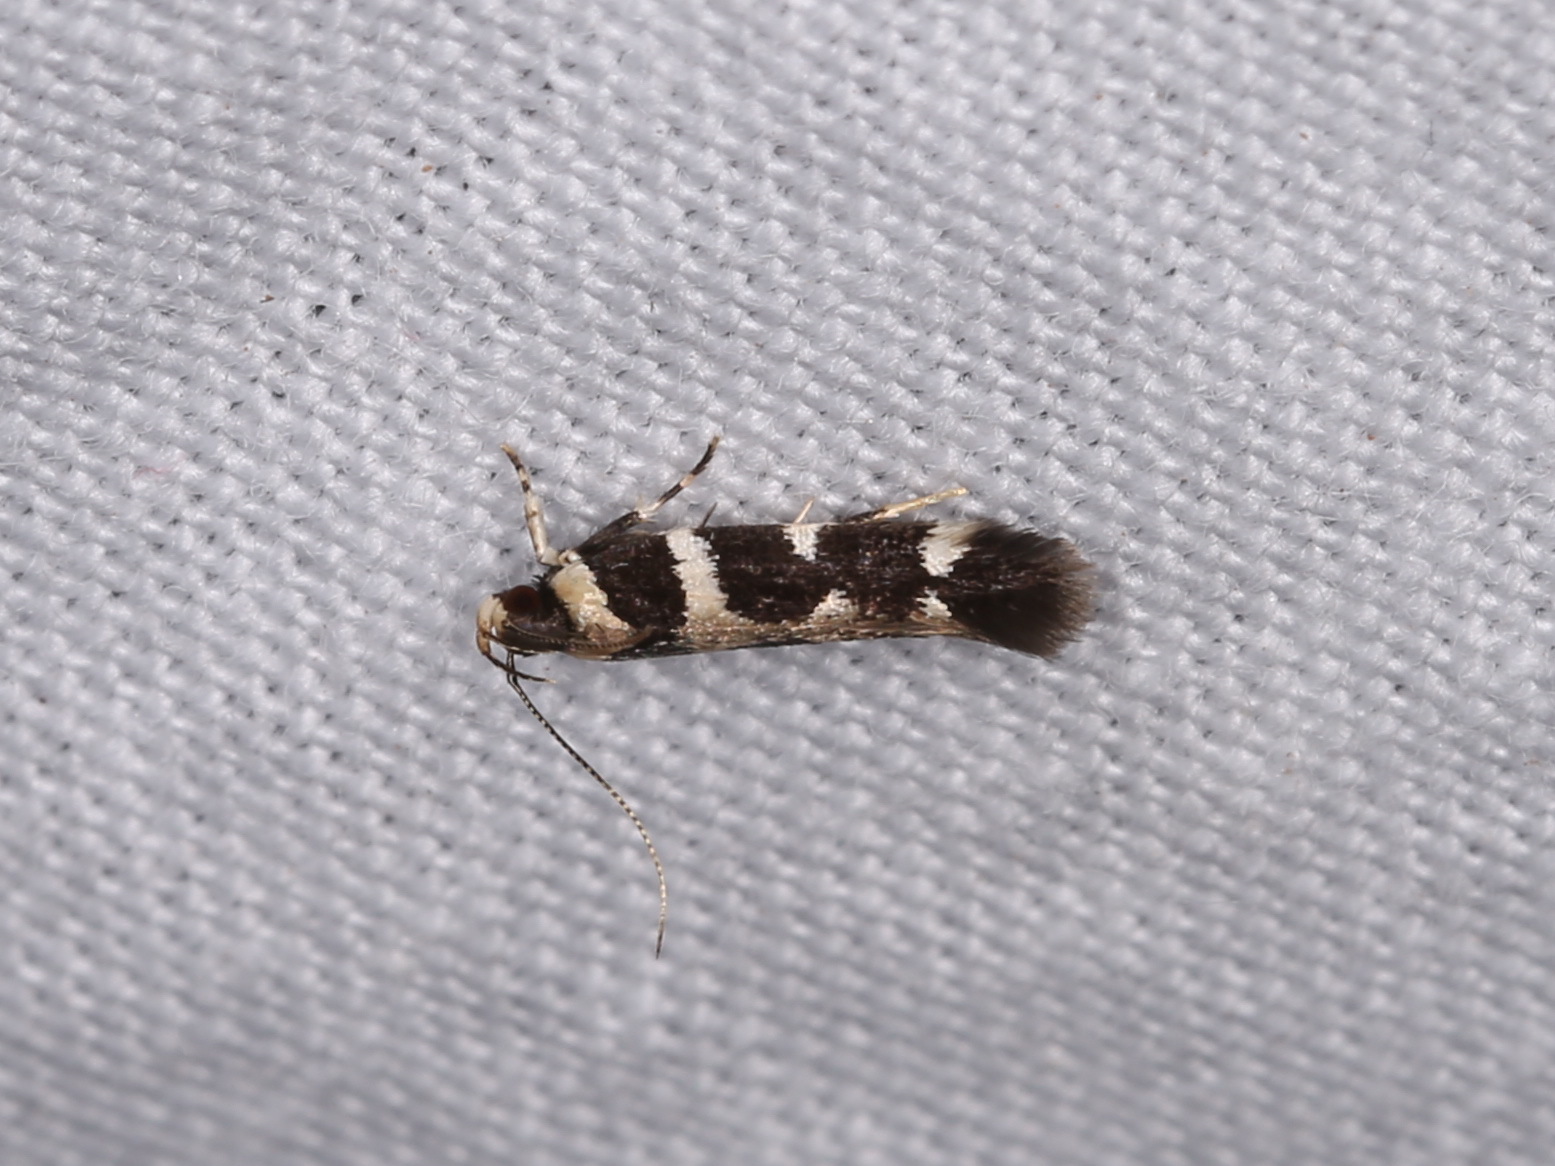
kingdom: Animalia
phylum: Arthropoda
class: Insecta
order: Lepidoptera
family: Cosmopterigidae
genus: Macrobathra
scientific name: Macrobathra bigerella
